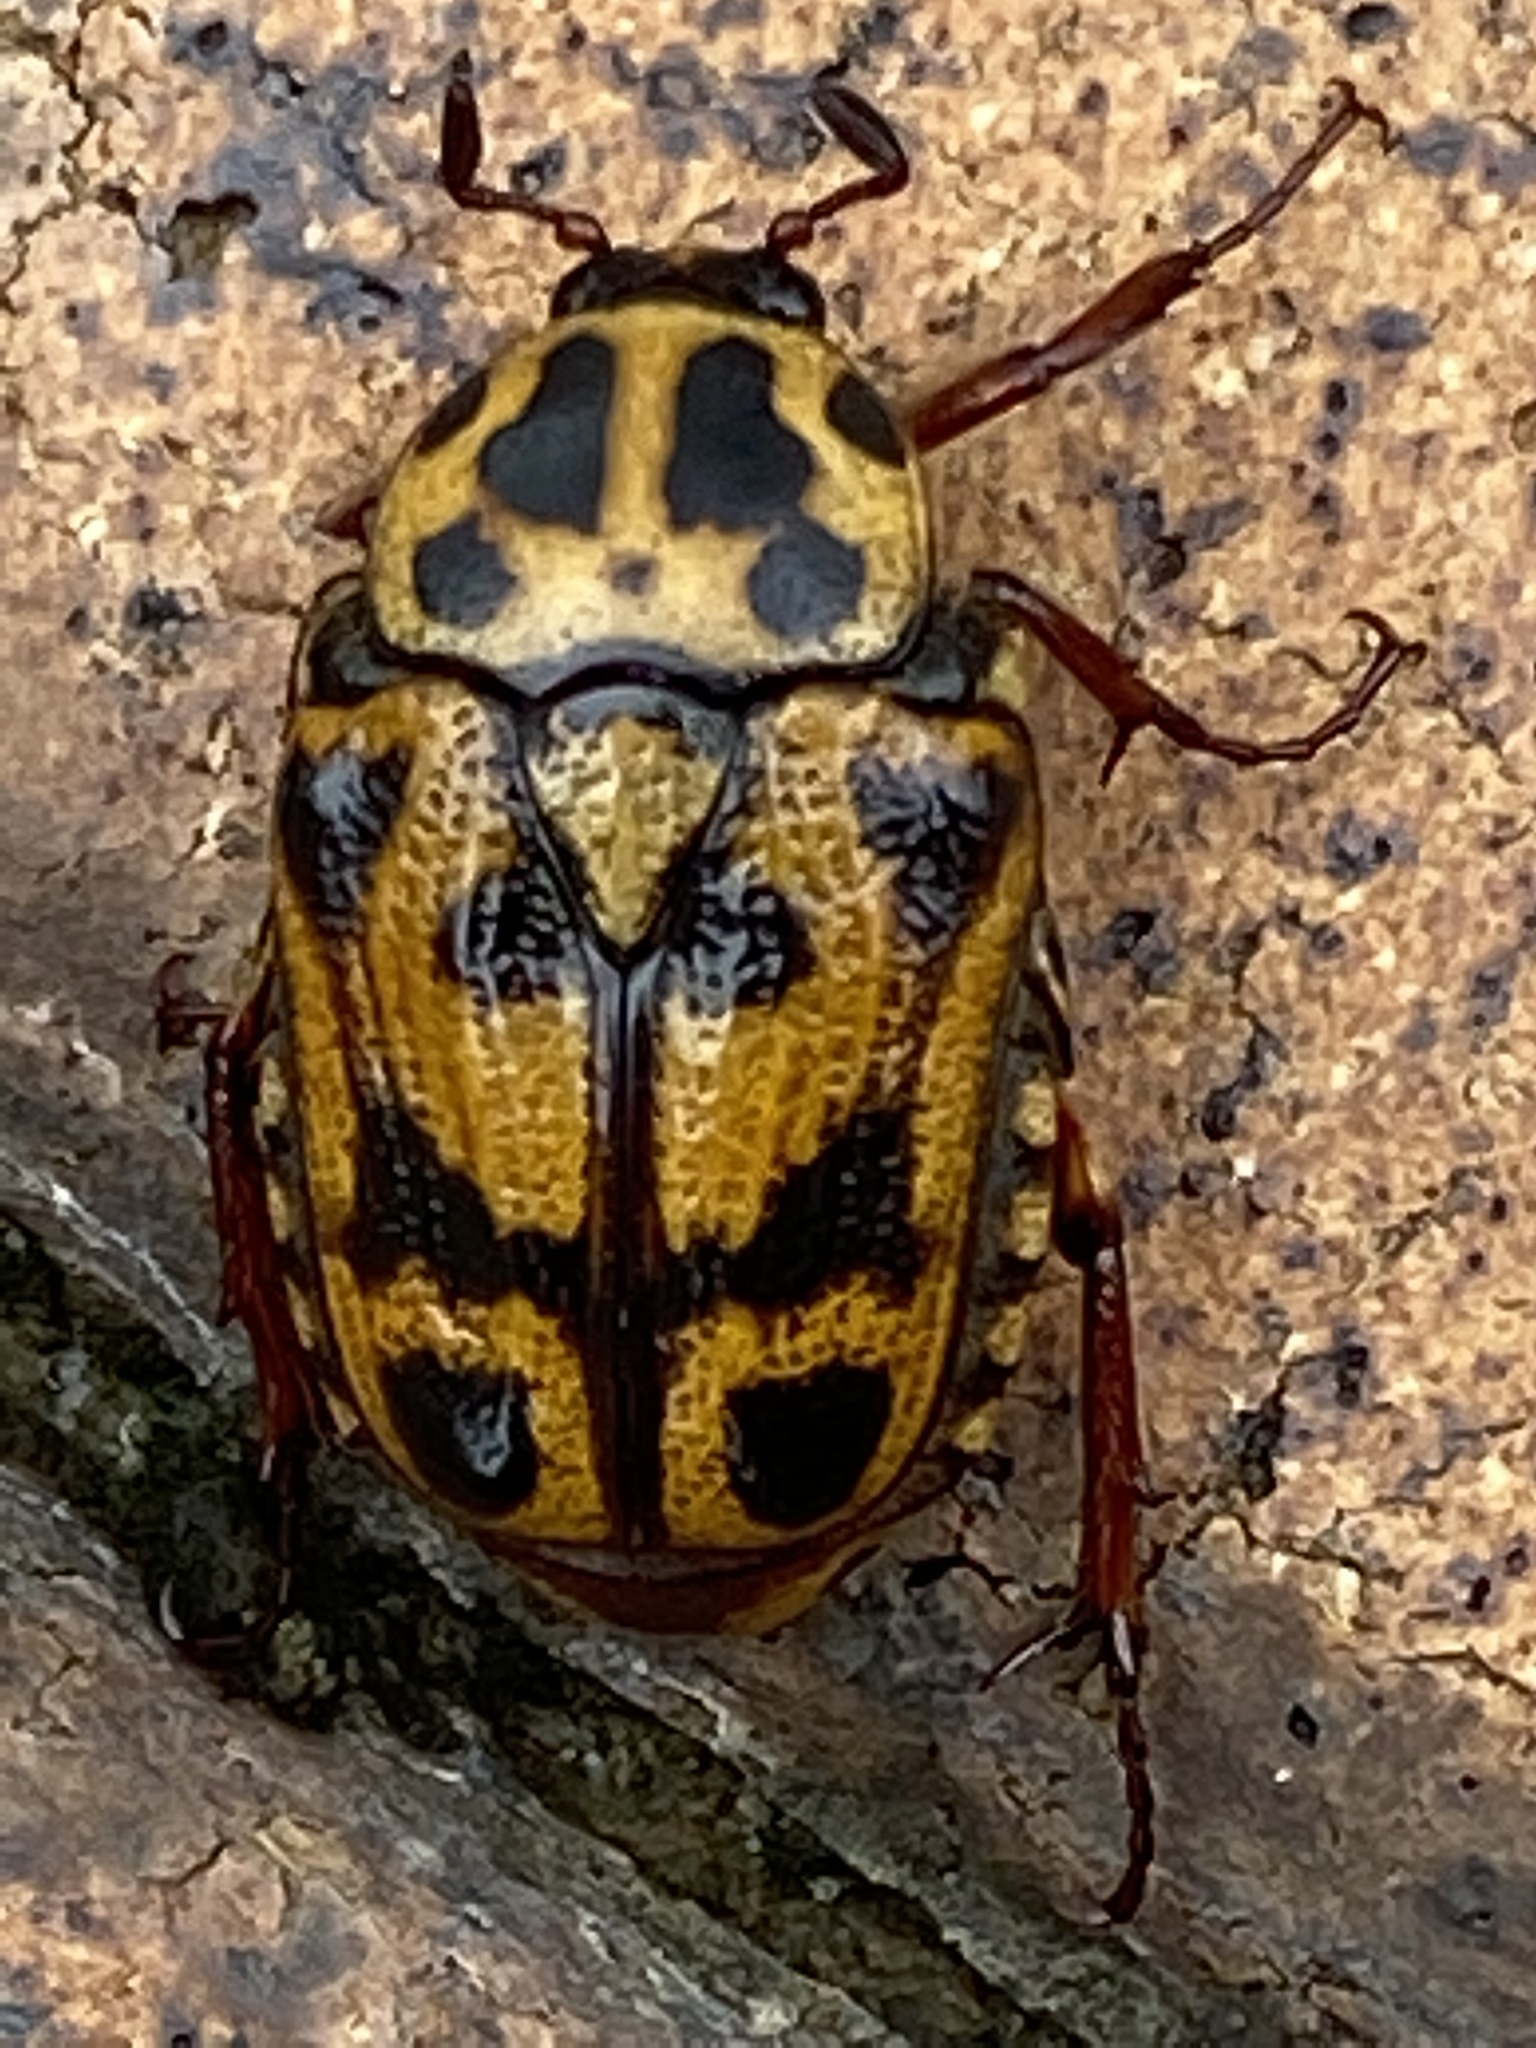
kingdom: Animalia
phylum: Arthropoda
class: Insecta
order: Coleoptera
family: Scarabaeidae
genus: Lyraphora
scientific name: Lyraphora obliquata
